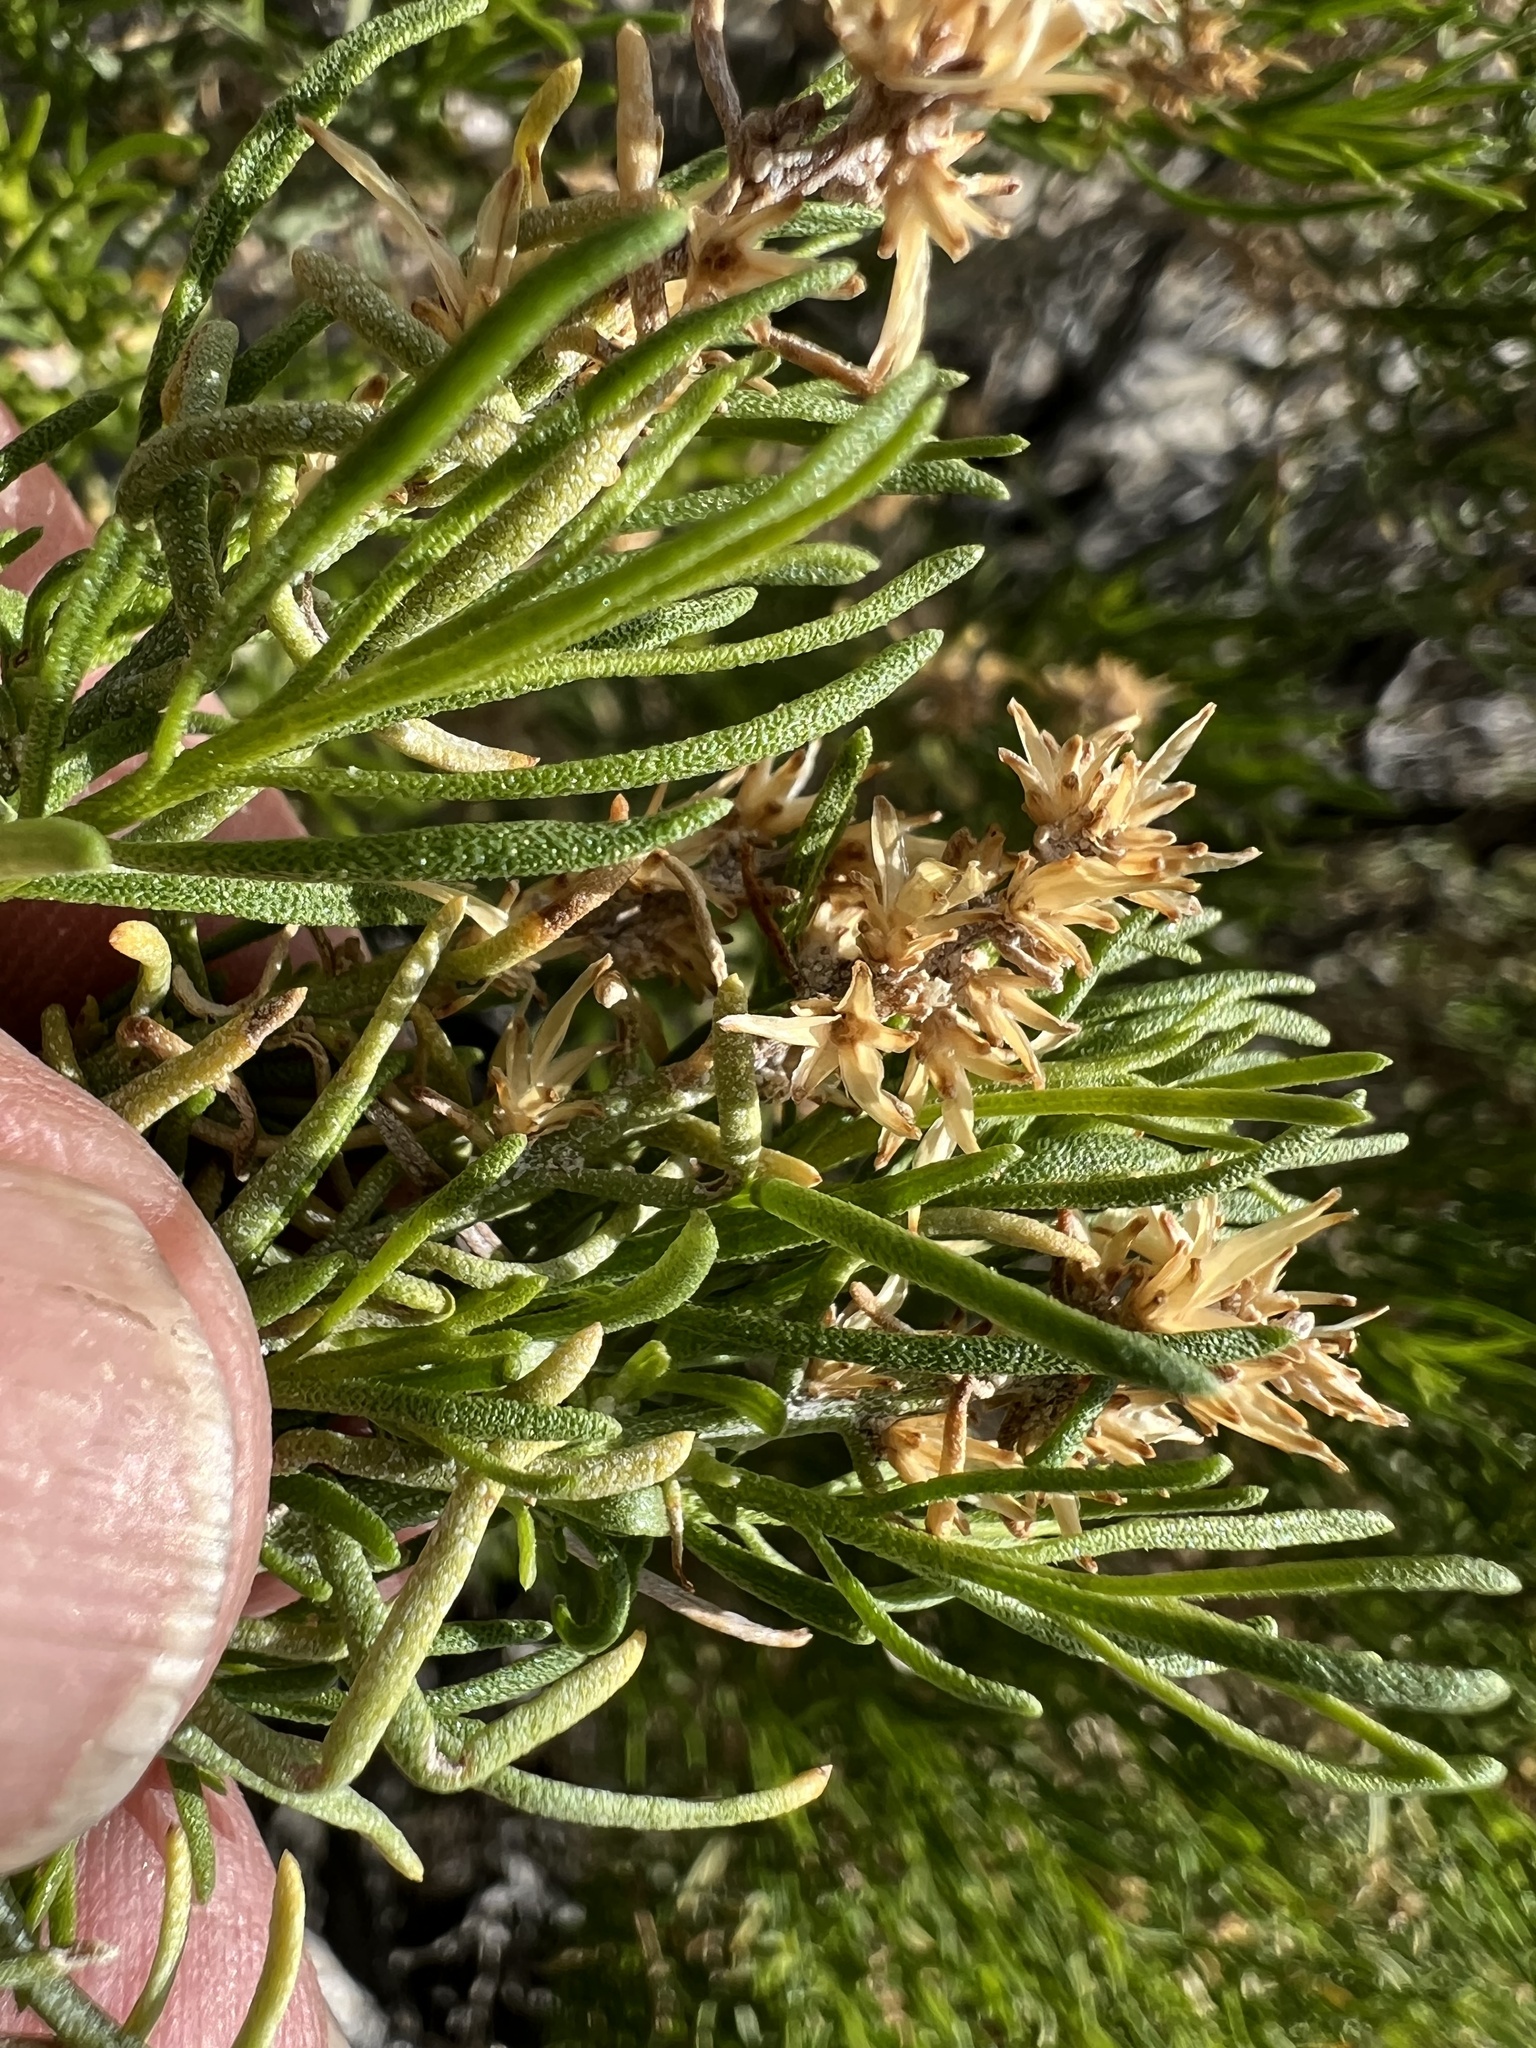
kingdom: Plantae
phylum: Tracheophyta
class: Magnoliopsida
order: Asterales
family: Asteraceae
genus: Ericameria
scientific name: Ericameria teretifolia
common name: Round-leaf rabbitbrush
